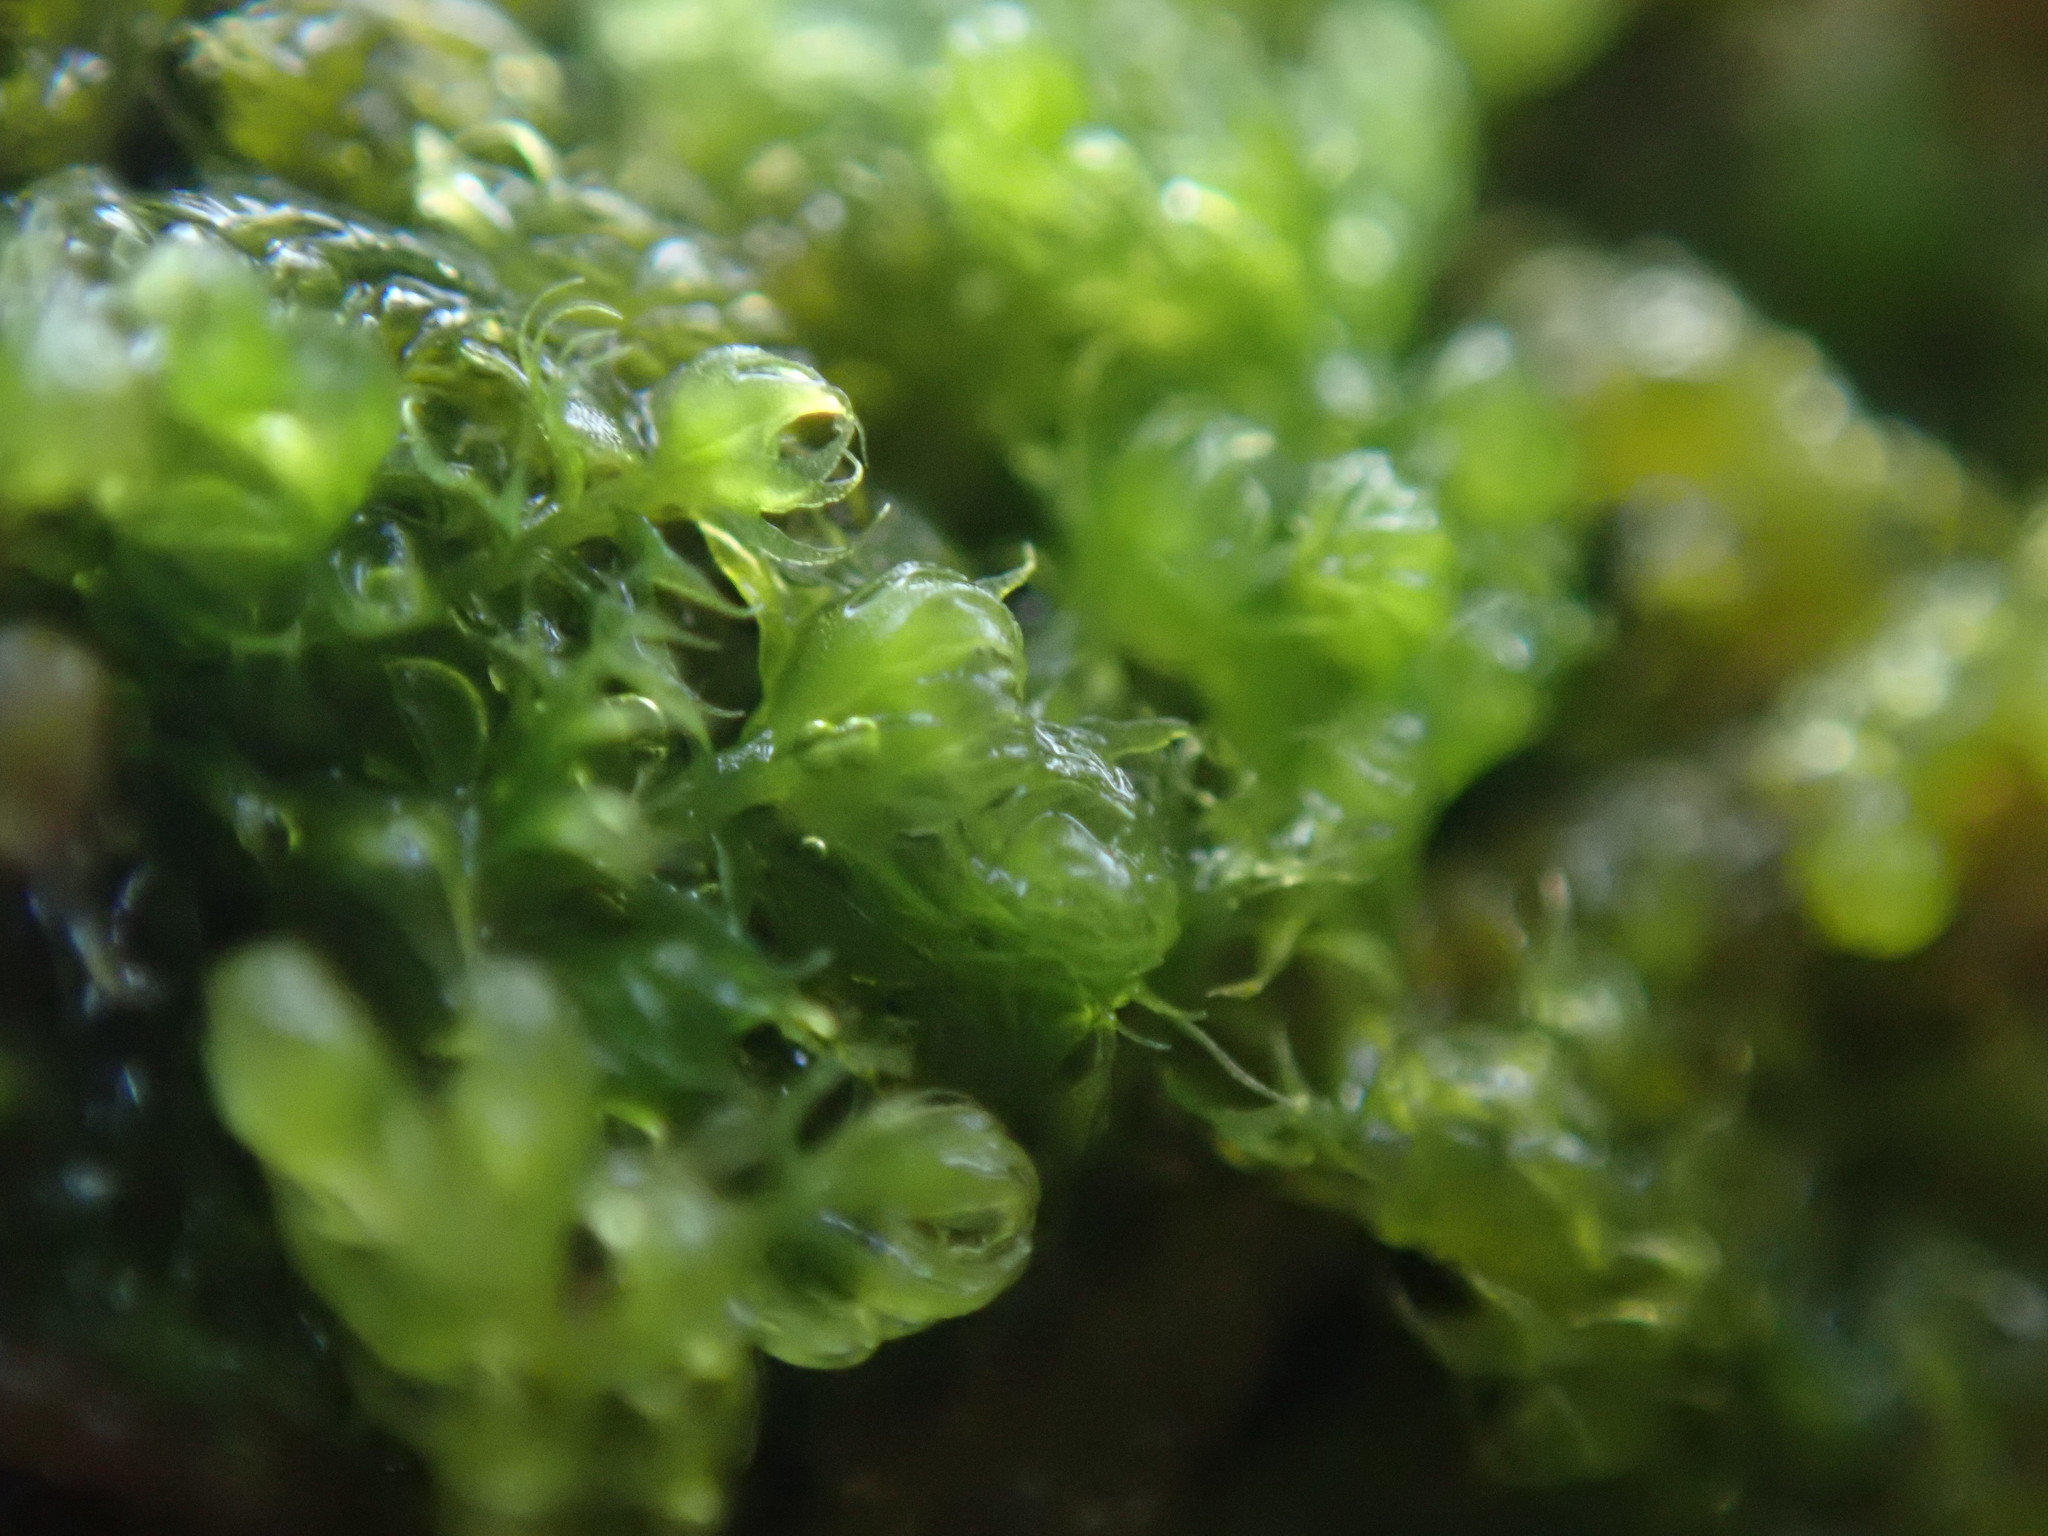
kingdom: Plantae
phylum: Marchantiophyta
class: Jungermanniopsida
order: Ptilidiales
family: Ptilidiaceae
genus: Ptilidium
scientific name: Ptilidium californicum
